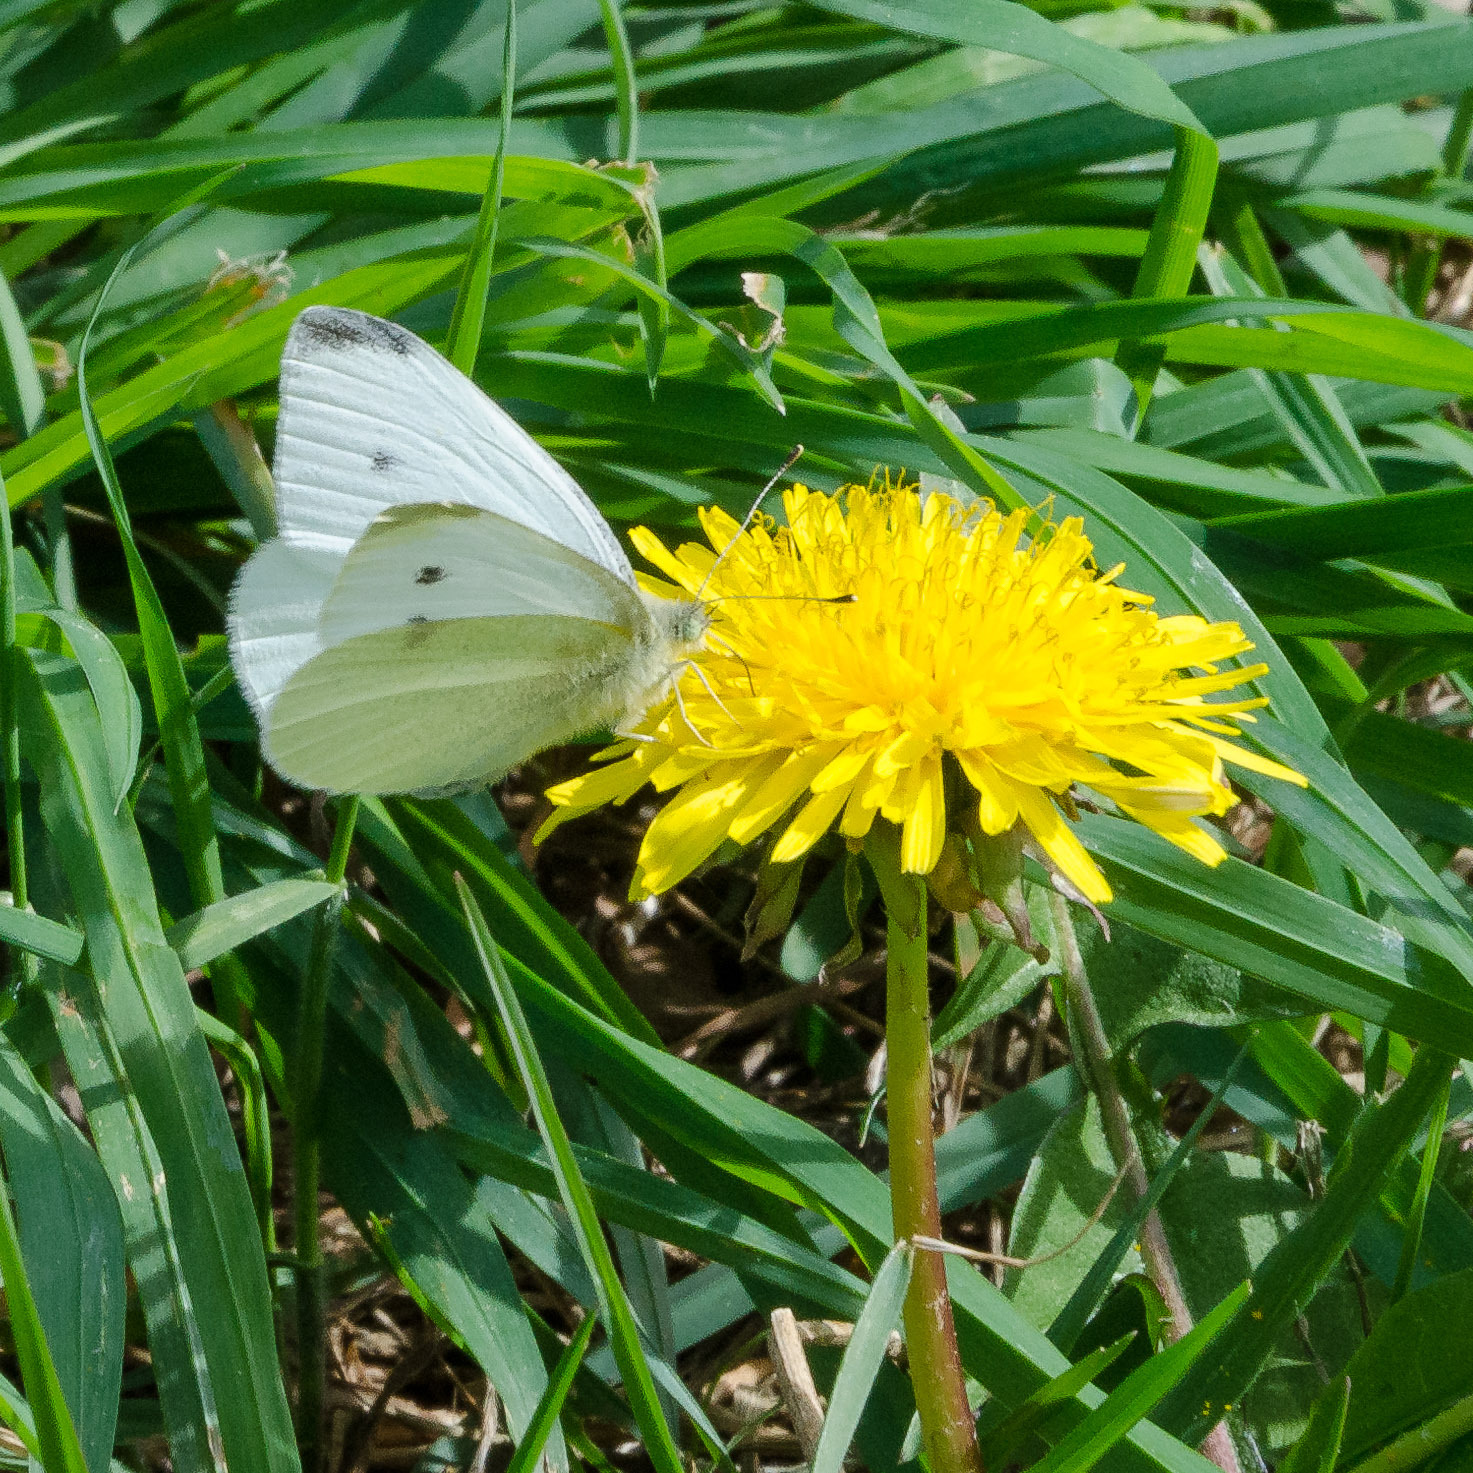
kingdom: Animalia
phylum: Arthropoda
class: Insecta
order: Lepidoptera
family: Pieridae
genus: Pieris
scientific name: Pieris rapae
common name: Small white
